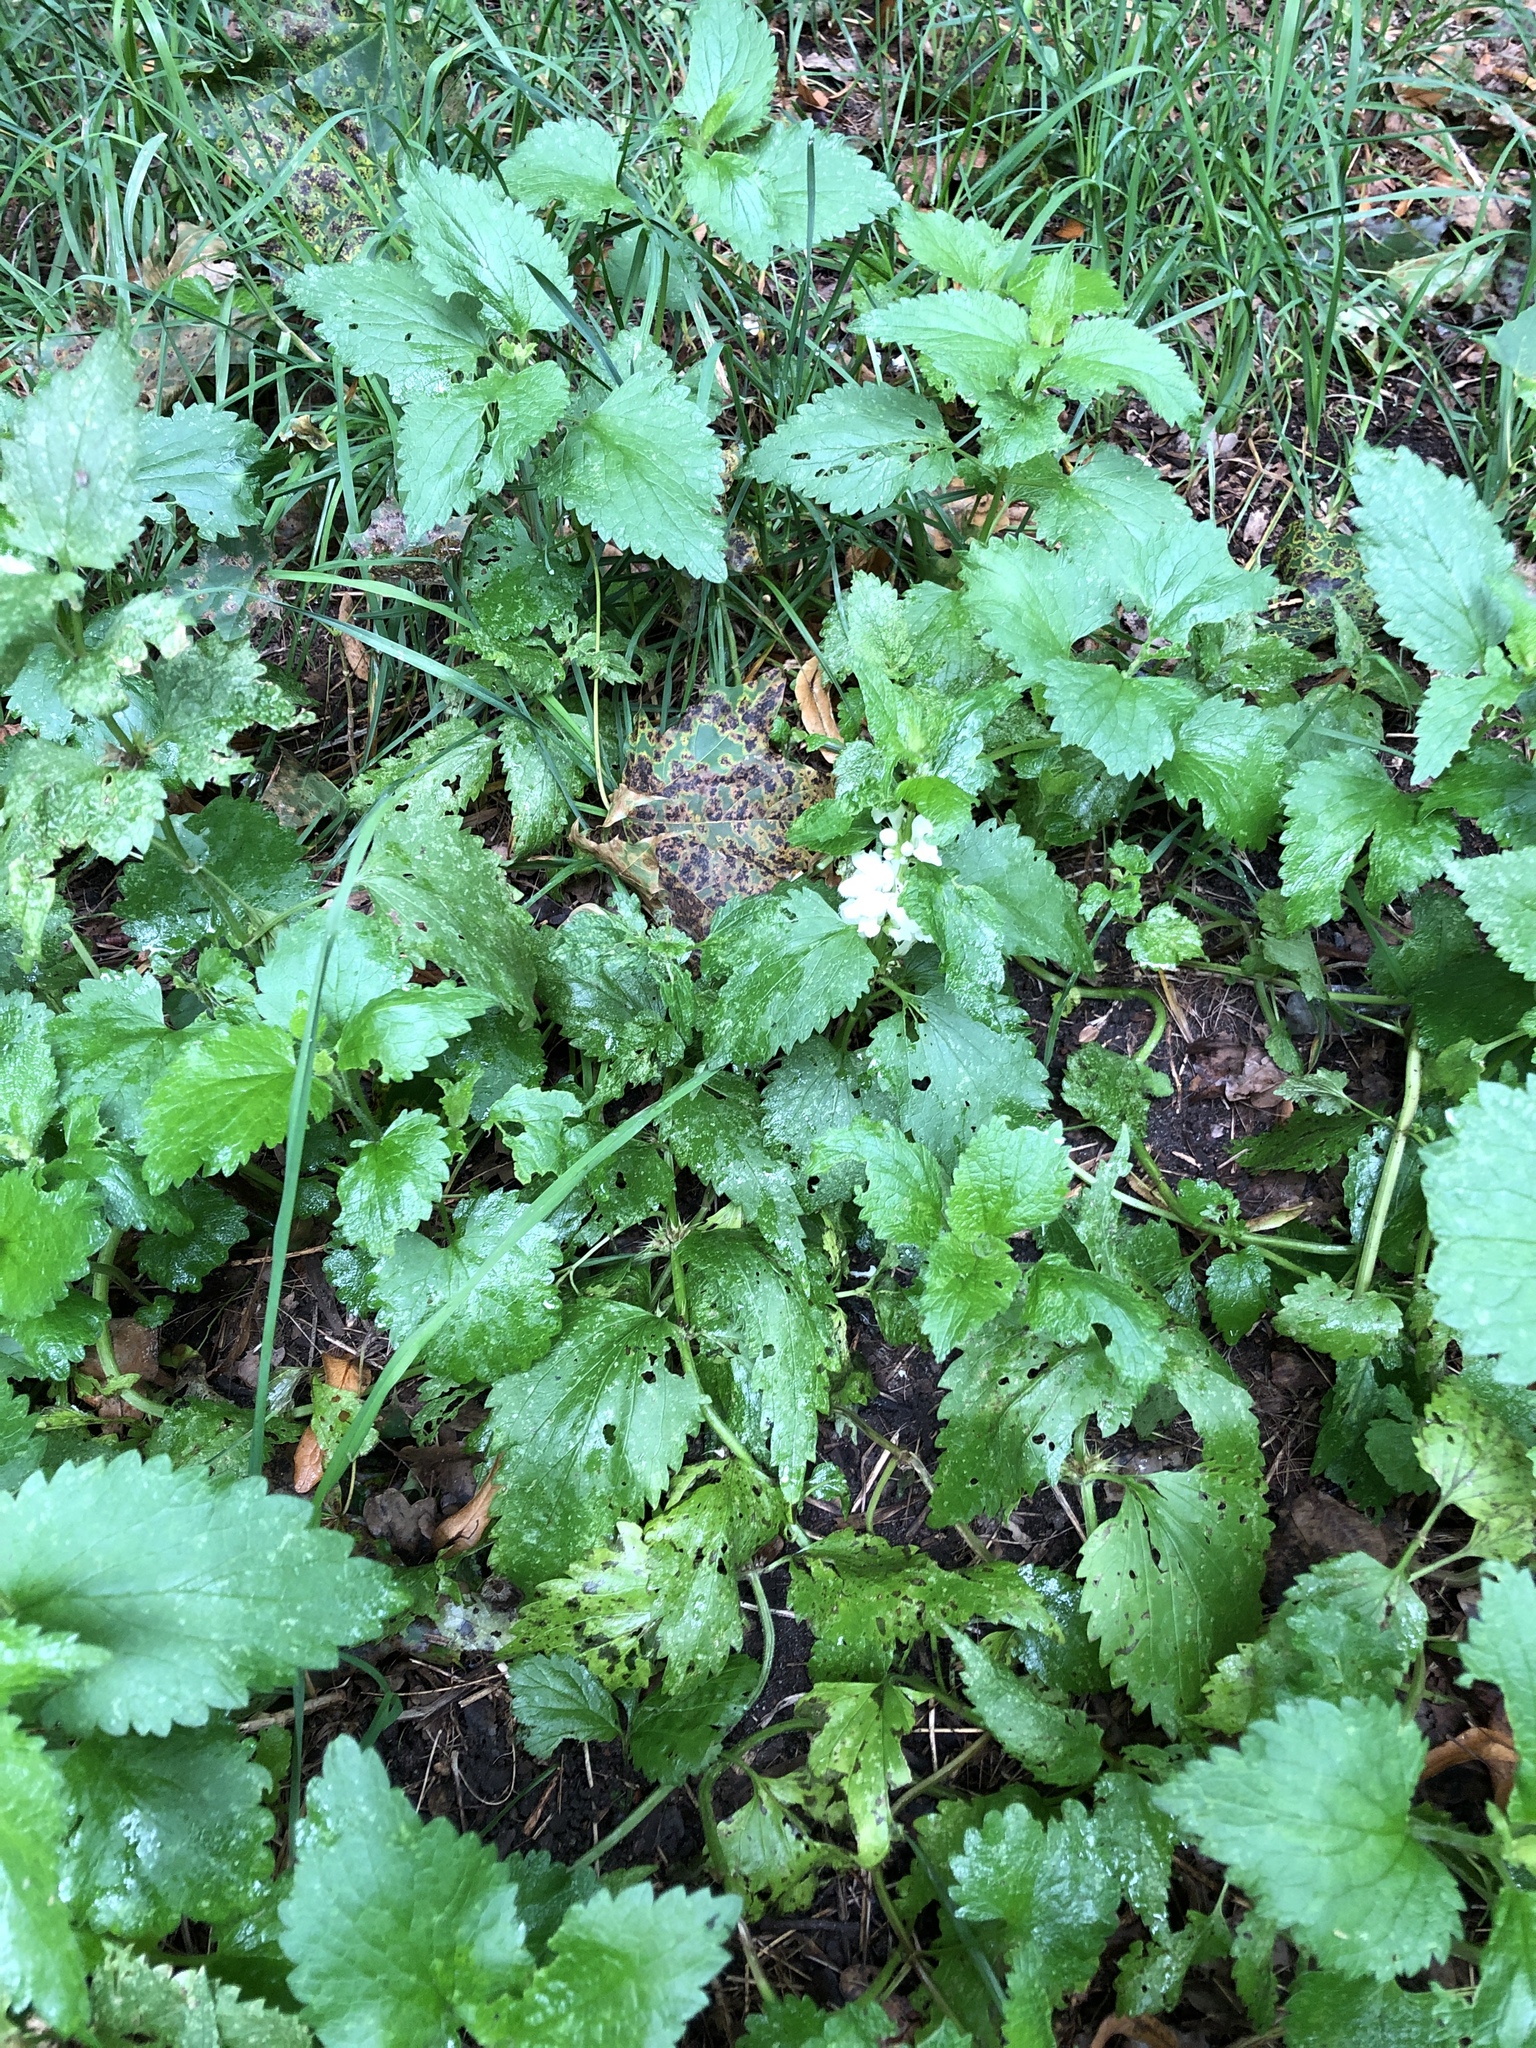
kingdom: Plantae
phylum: Tracheophyta
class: Magnoliopsida
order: Lamiales
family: Lamiaceae
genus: Lamium
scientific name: Lamium album
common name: White dead-nettle
